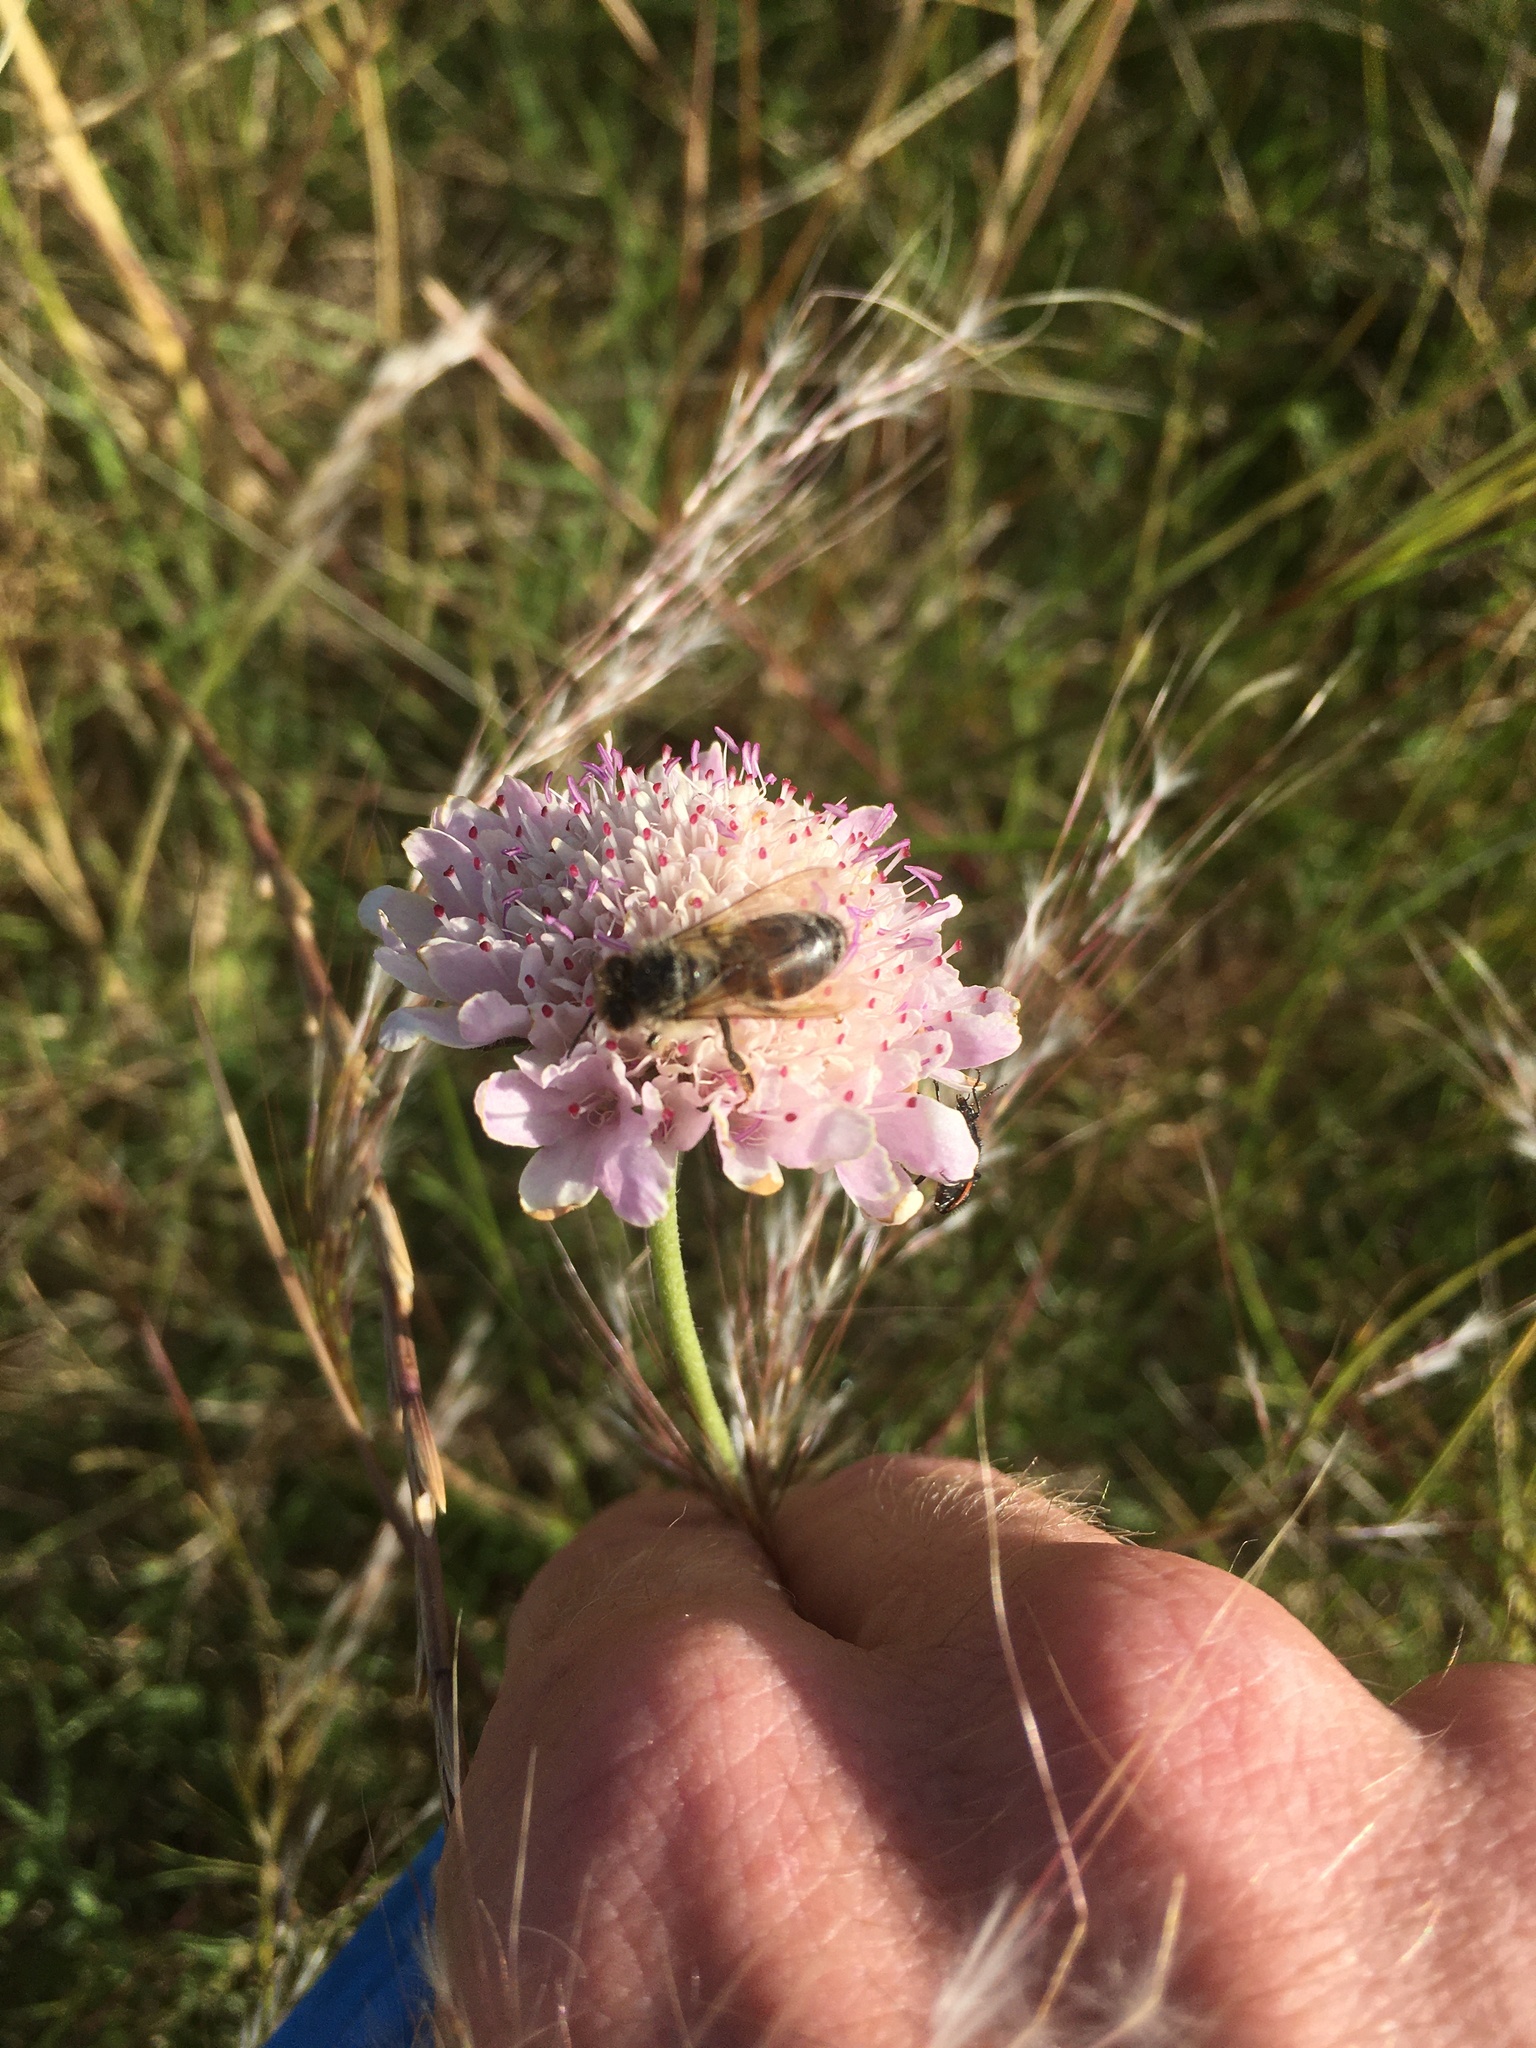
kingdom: Animalia
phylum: Arthropoda
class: Insecta
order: Hymenoptera
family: Apidae
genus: Apis
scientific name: Apis mellifera
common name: Honey bee
